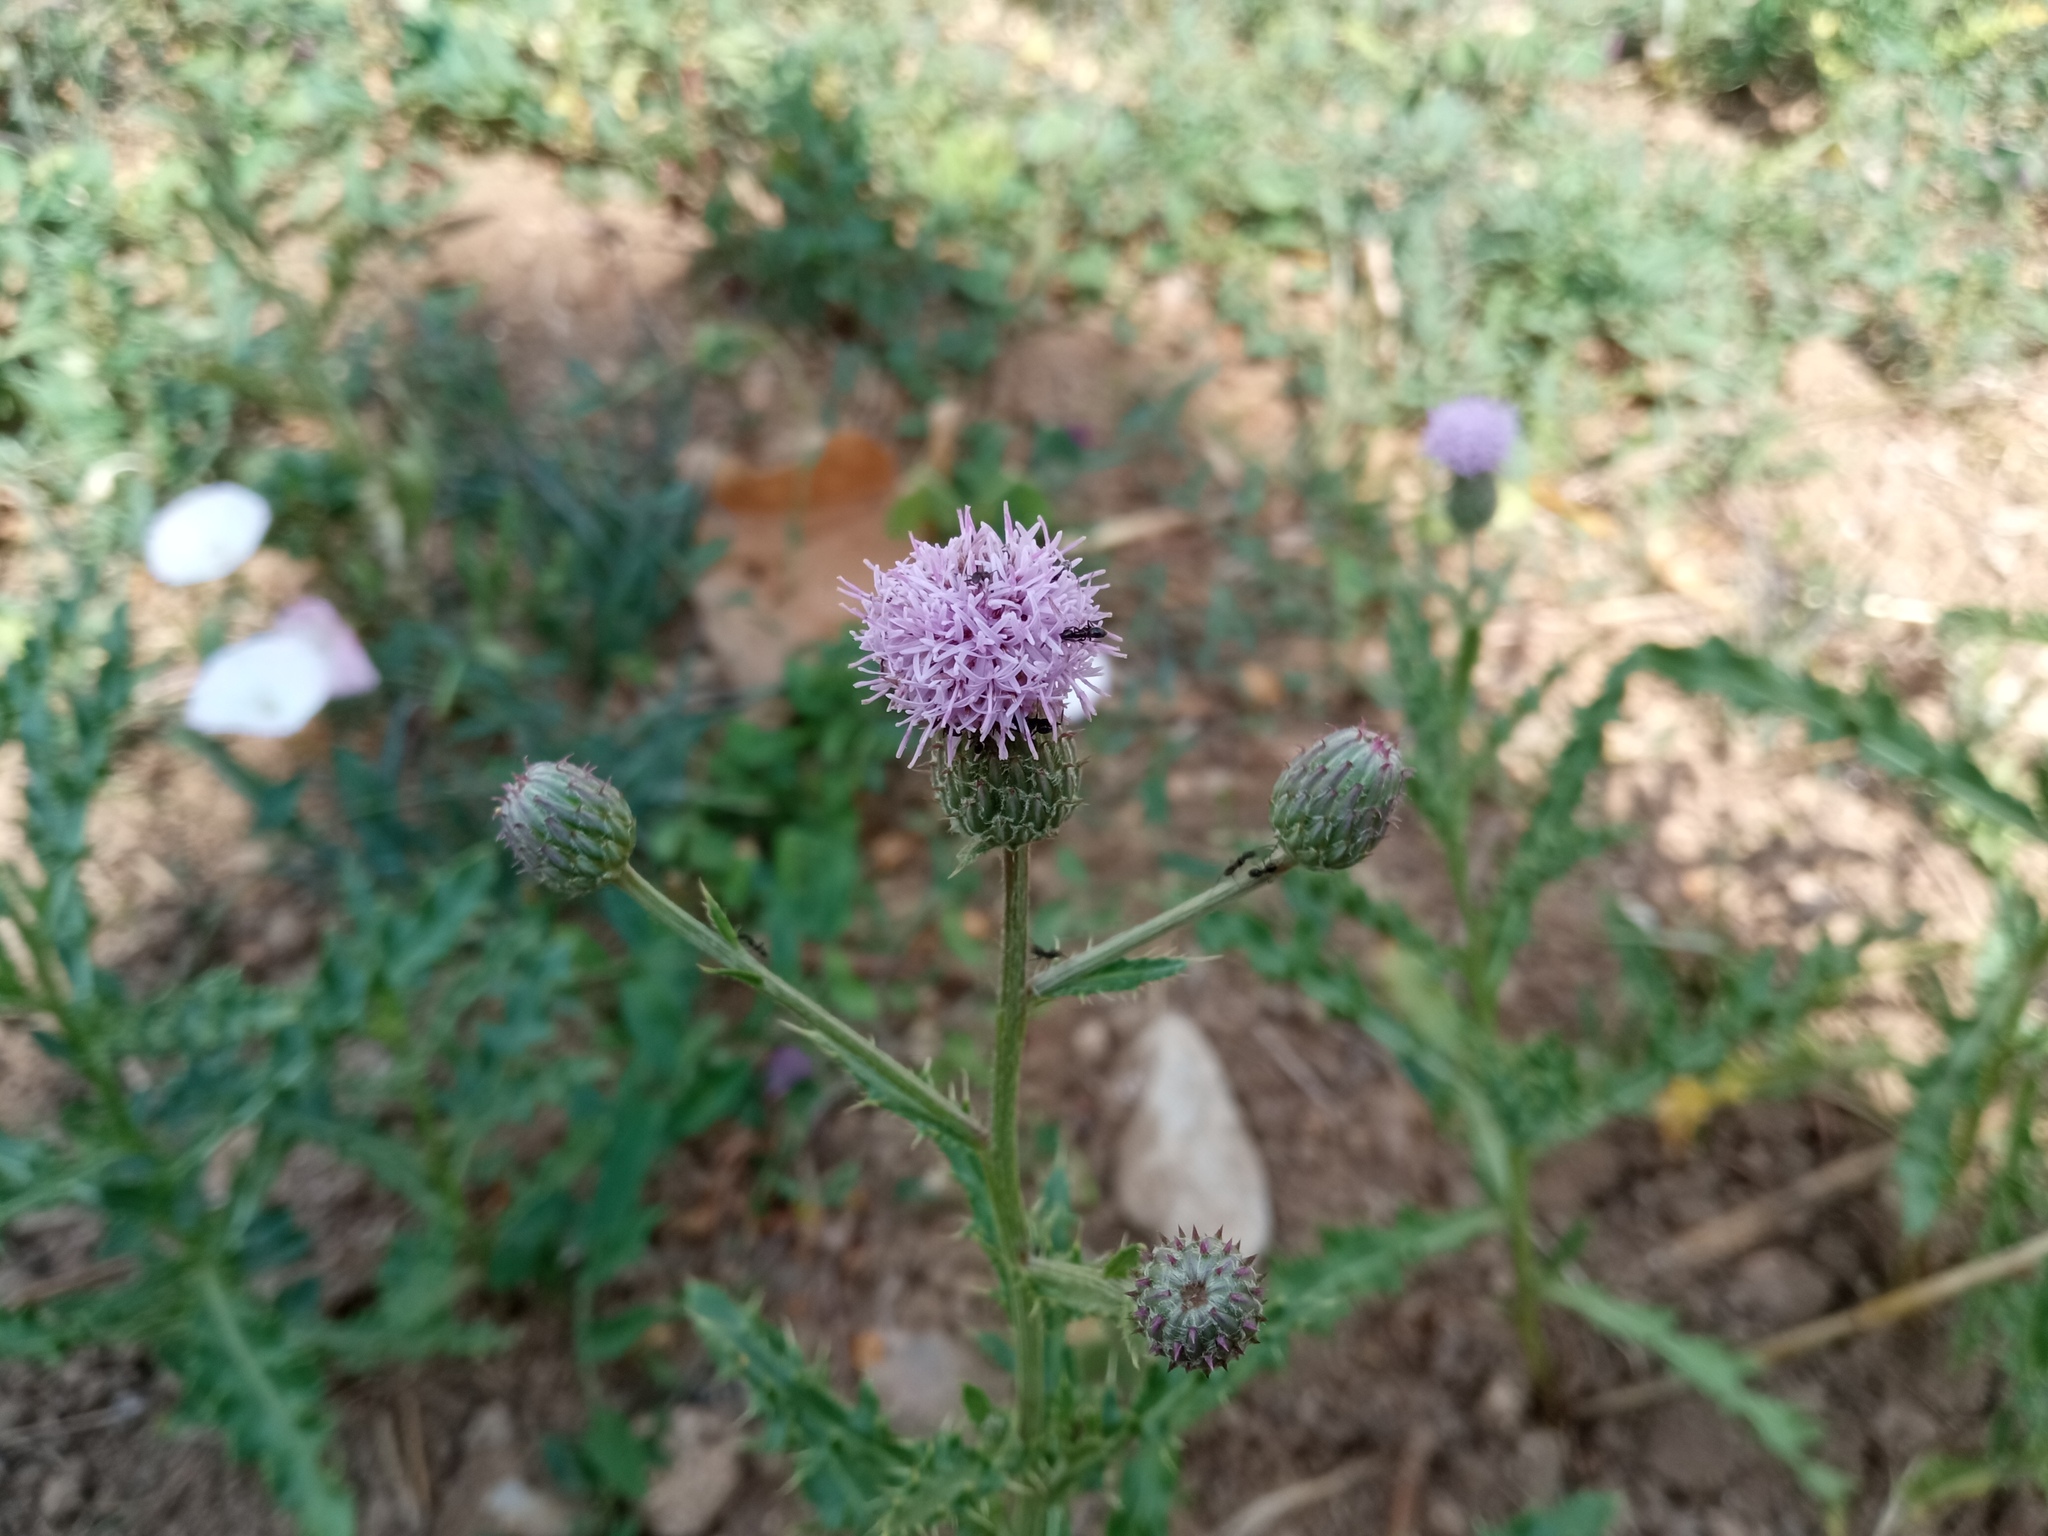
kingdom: Plantae
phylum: Tracheophyta
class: Magnoliopsida
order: Asterales
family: Asteraceae
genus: Cirsium
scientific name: Cirsium arvense
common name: Creeping thistle
